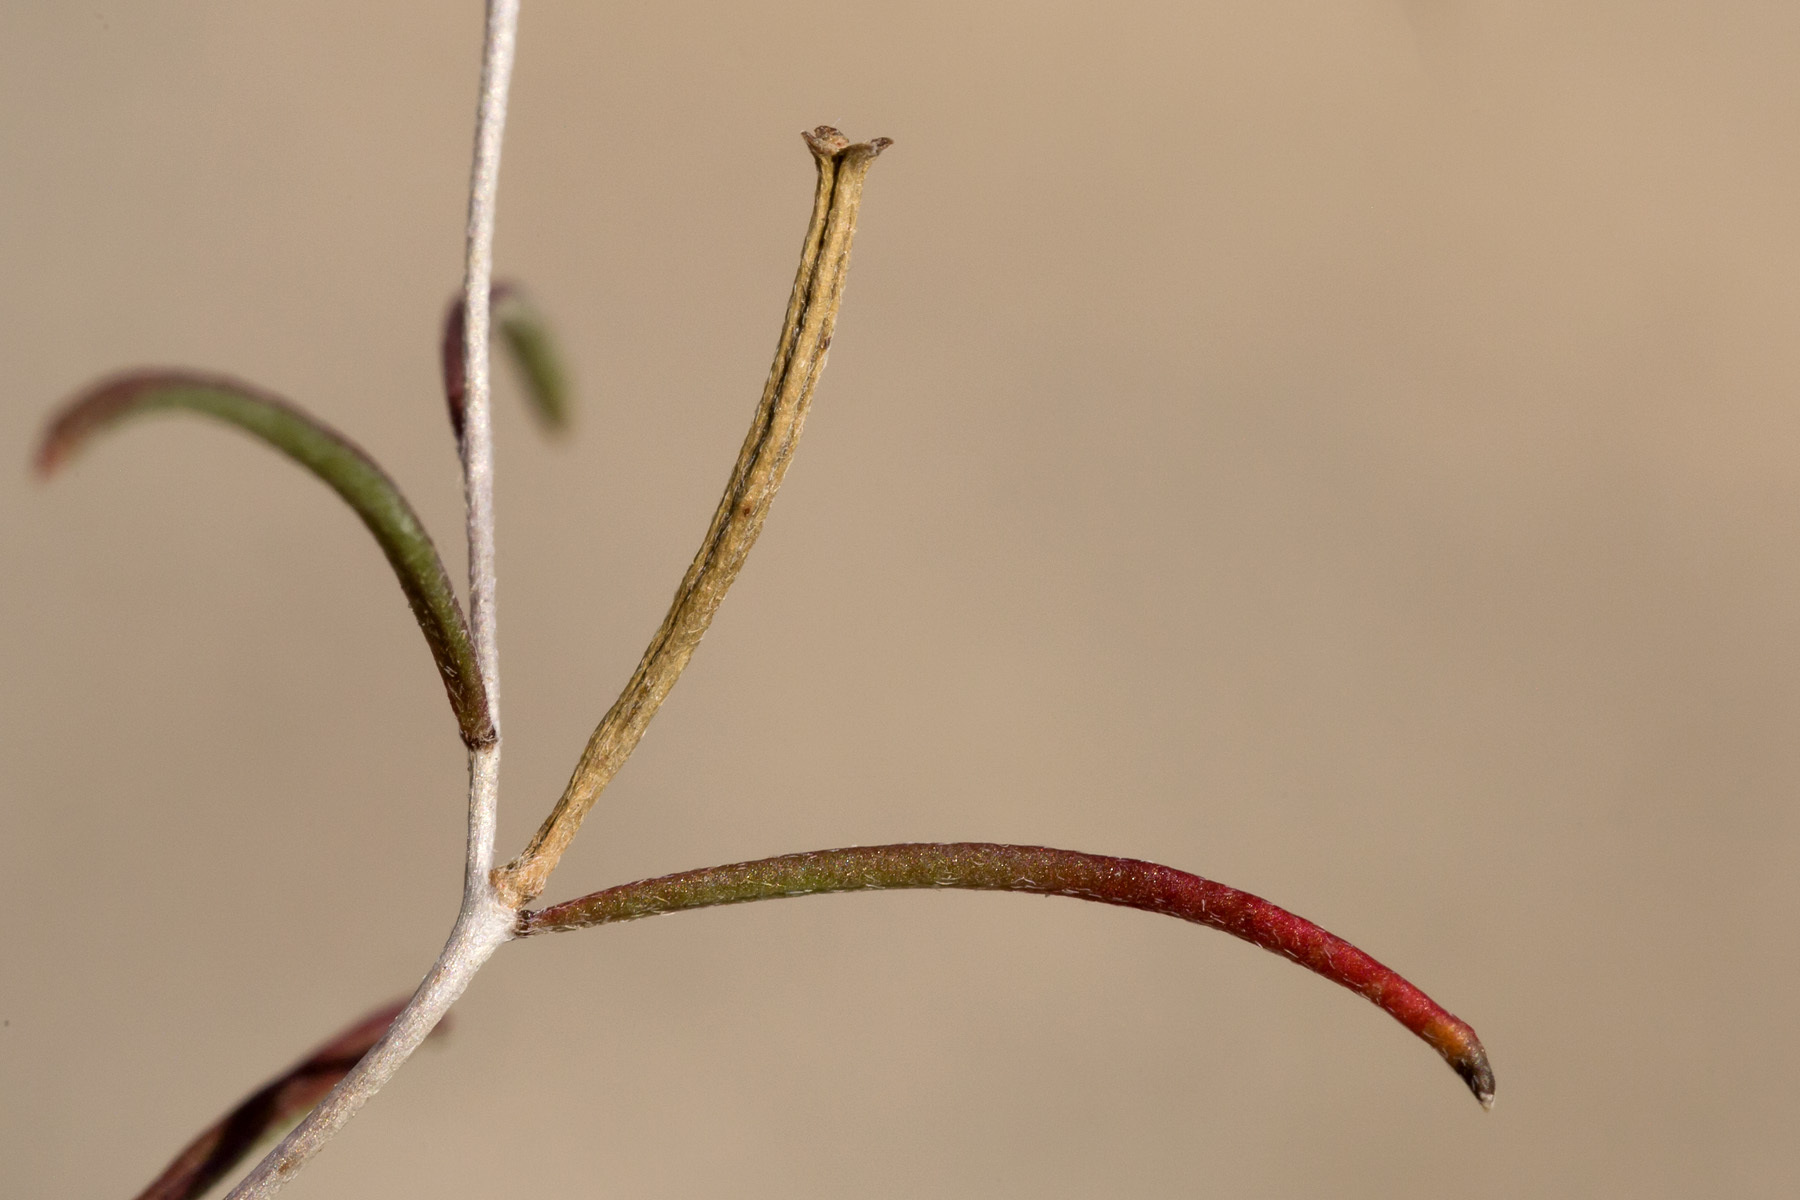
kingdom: Plantae
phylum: Tracheophyta
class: Magnoliopsida
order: Myrtales
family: Onagraceae
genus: Oenothera
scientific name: Oenothera gayleana
